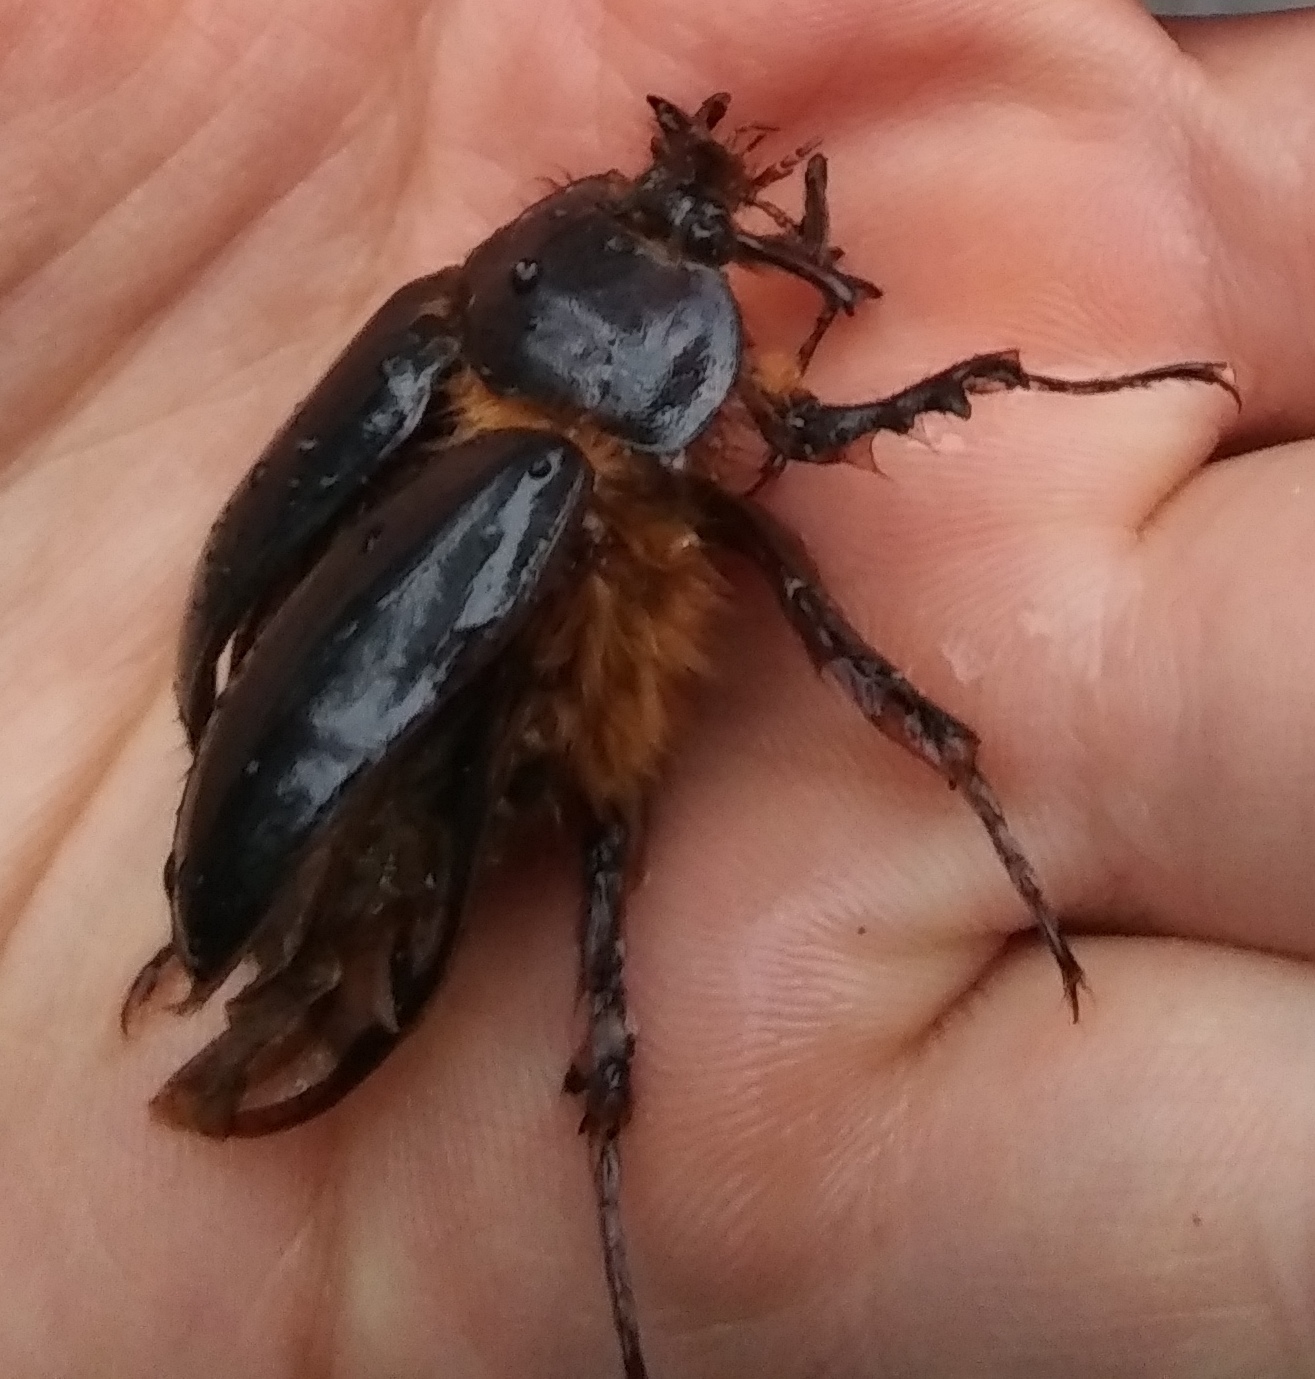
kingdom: Animalia
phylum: Arthropoda
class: Insecta
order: Coleoptera
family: Pleocomidae
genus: Pleocoma
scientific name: Pleocoma australis
